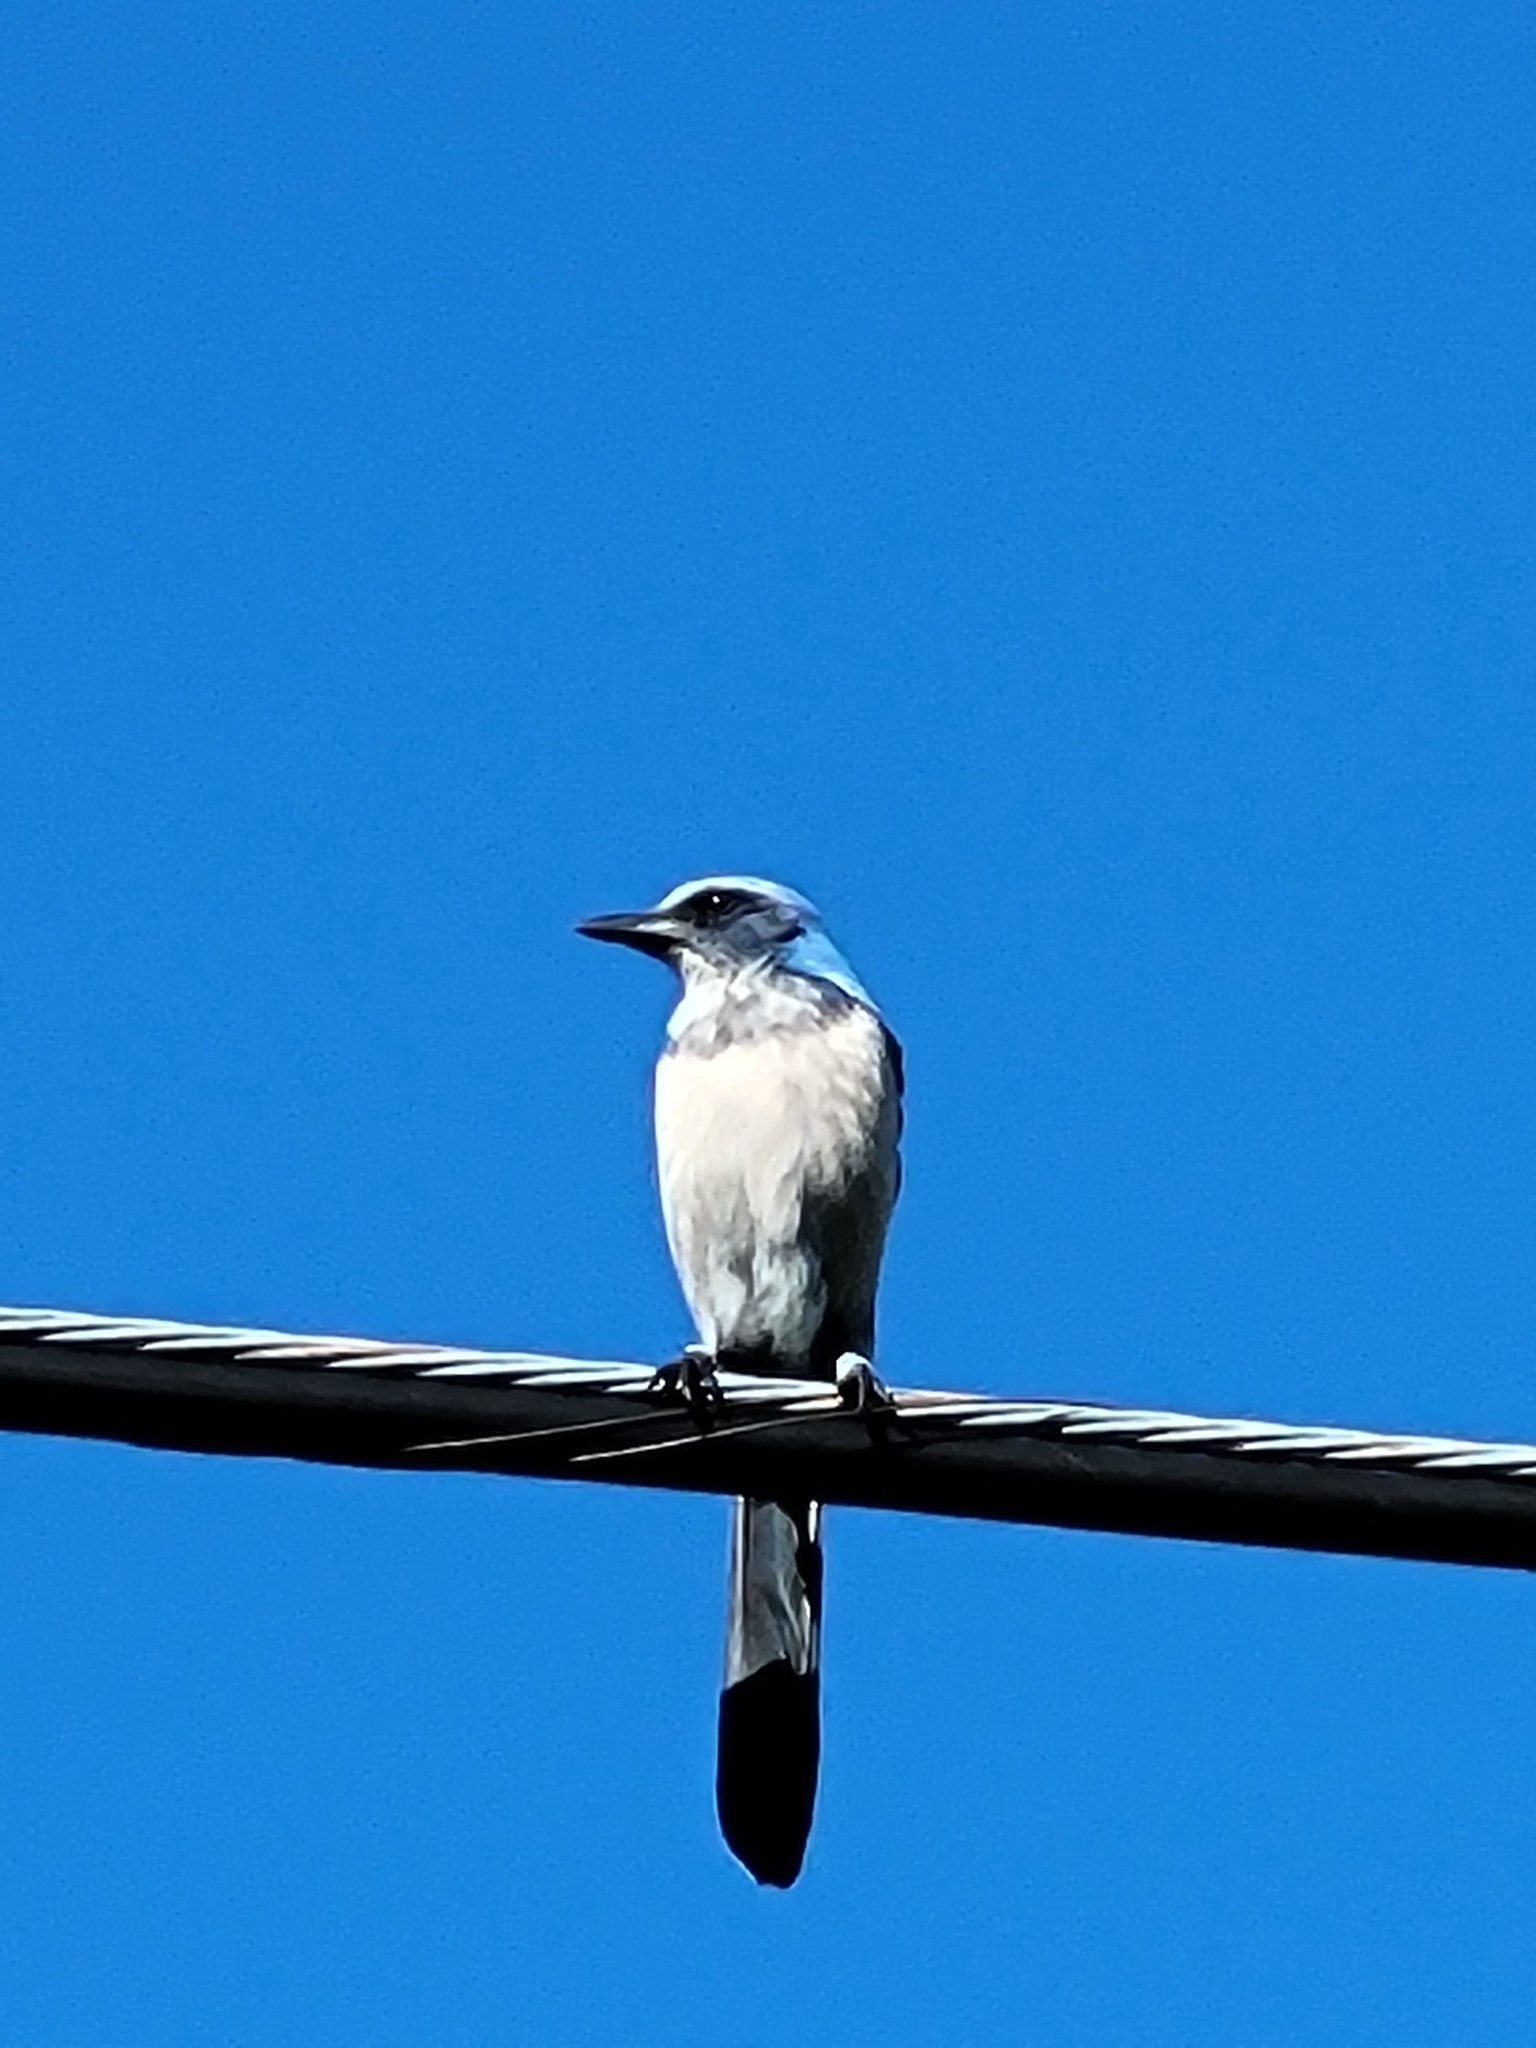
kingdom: Animalia
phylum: Chordata
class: Aves
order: Passeriformes
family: Corvidae
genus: Aphelocoma
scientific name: Aphelocoma coerulescens
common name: Florida scrub jay
